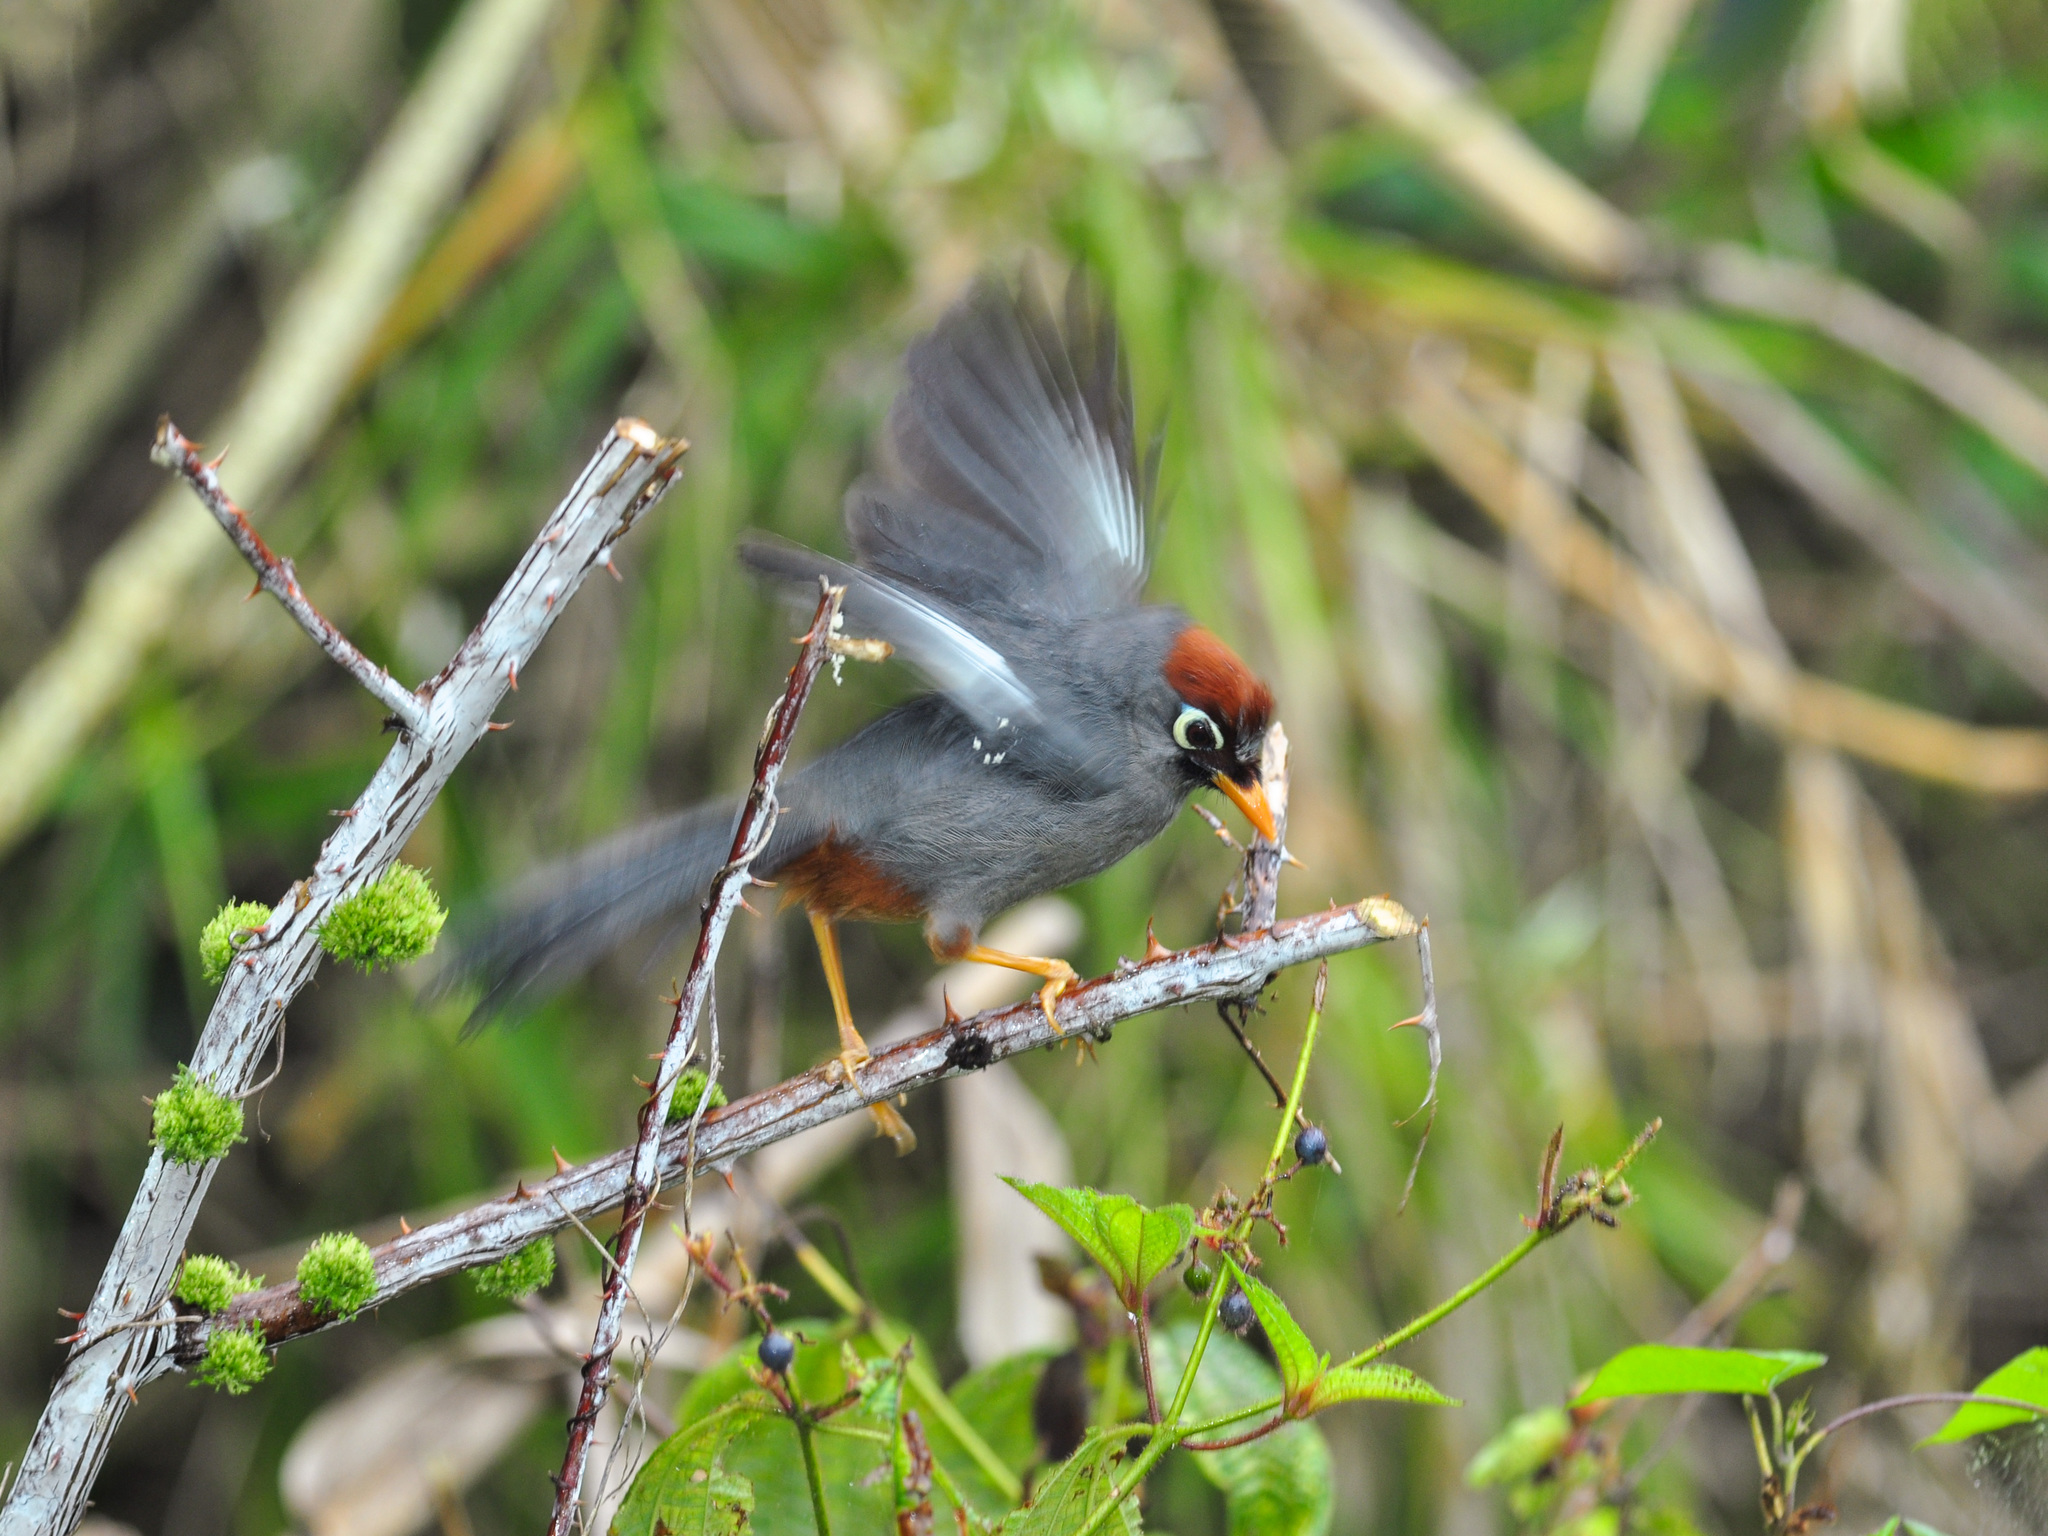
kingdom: Animalia
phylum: Chordata
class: Aves
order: Passeriformes
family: Leiothrichidae
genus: Garrulax
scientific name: Garrulax mitratus
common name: Chestnut-capped laughingthrush
